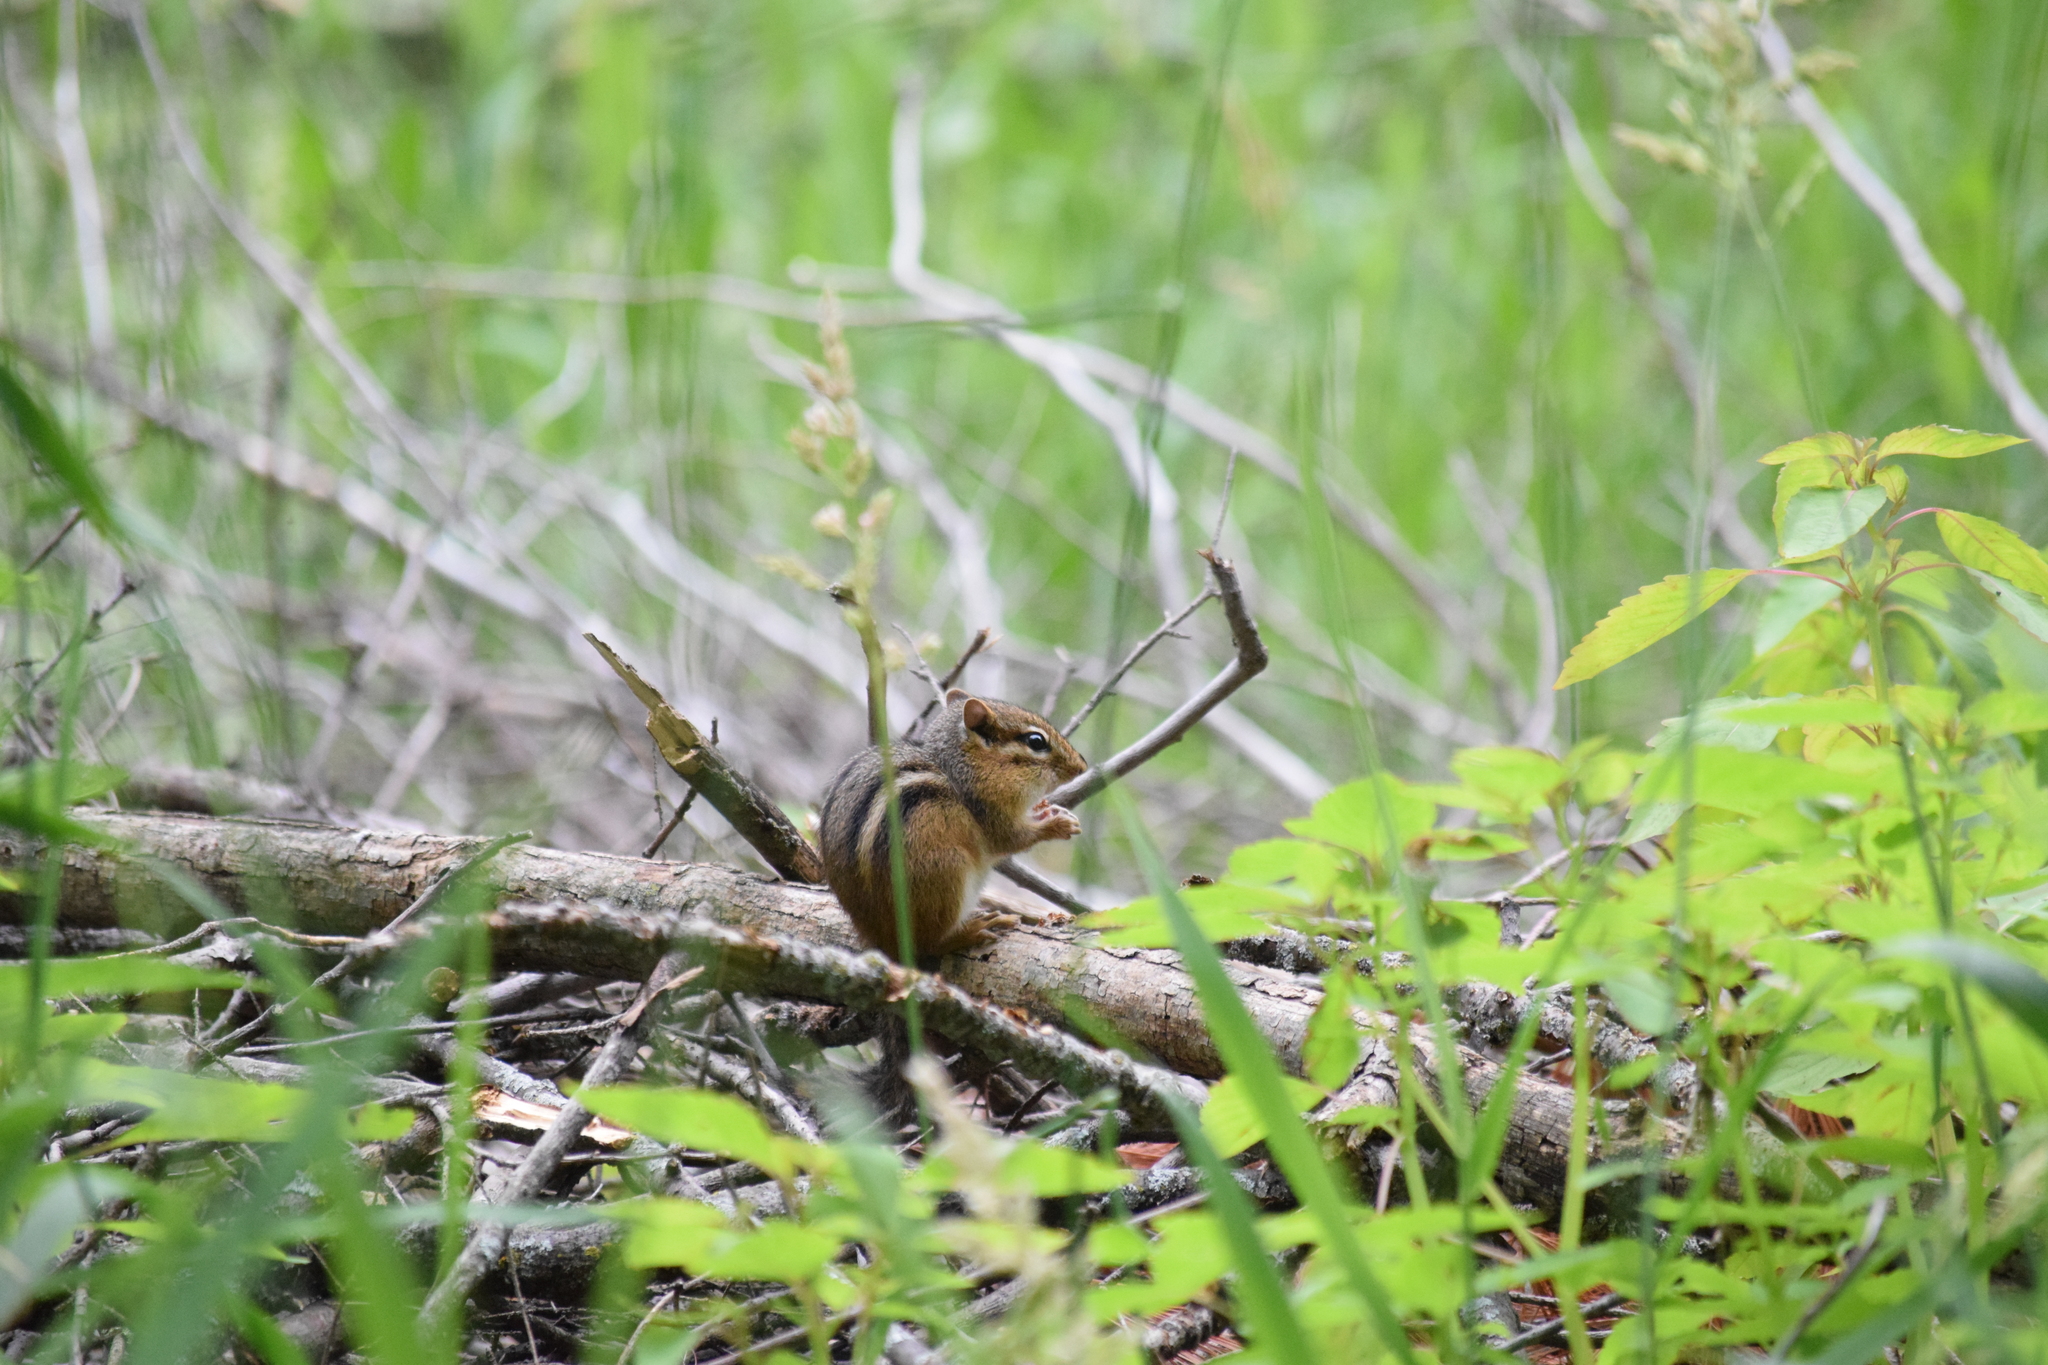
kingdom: Animalia
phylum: Chordata
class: Mammalia
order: Rodentia
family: Sciuridae
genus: Tamias
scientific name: Tamias striatus
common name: Eastern chipmunk
